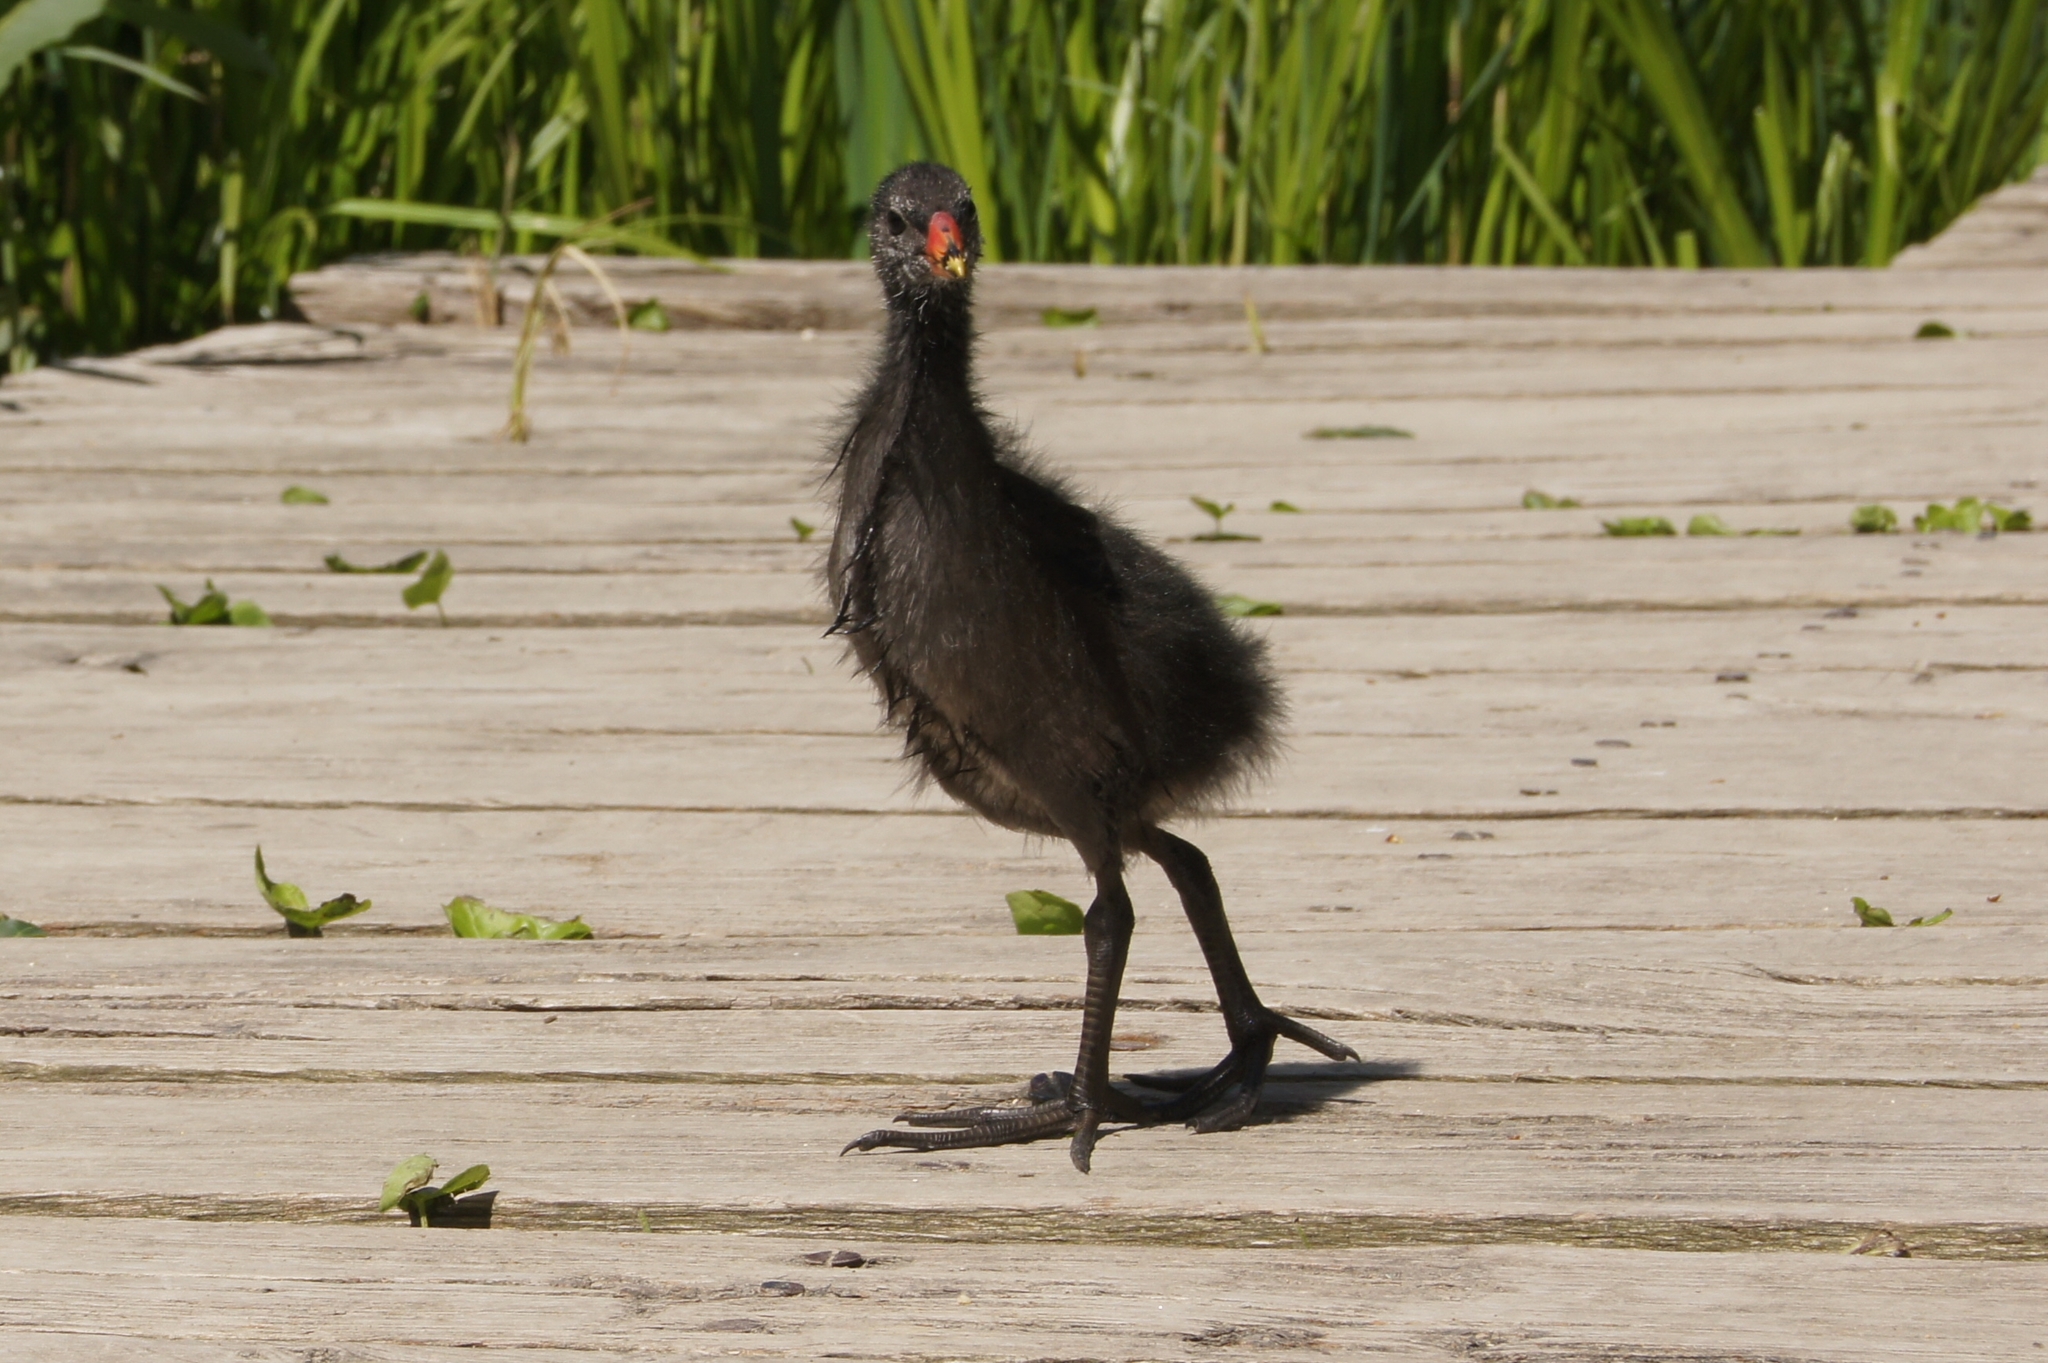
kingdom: Animalia
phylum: Chordata
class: Aves
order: Gruiformes
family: Rallidae
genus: Gallinula
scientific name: Gallinula chloropus
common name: Common moorhen
